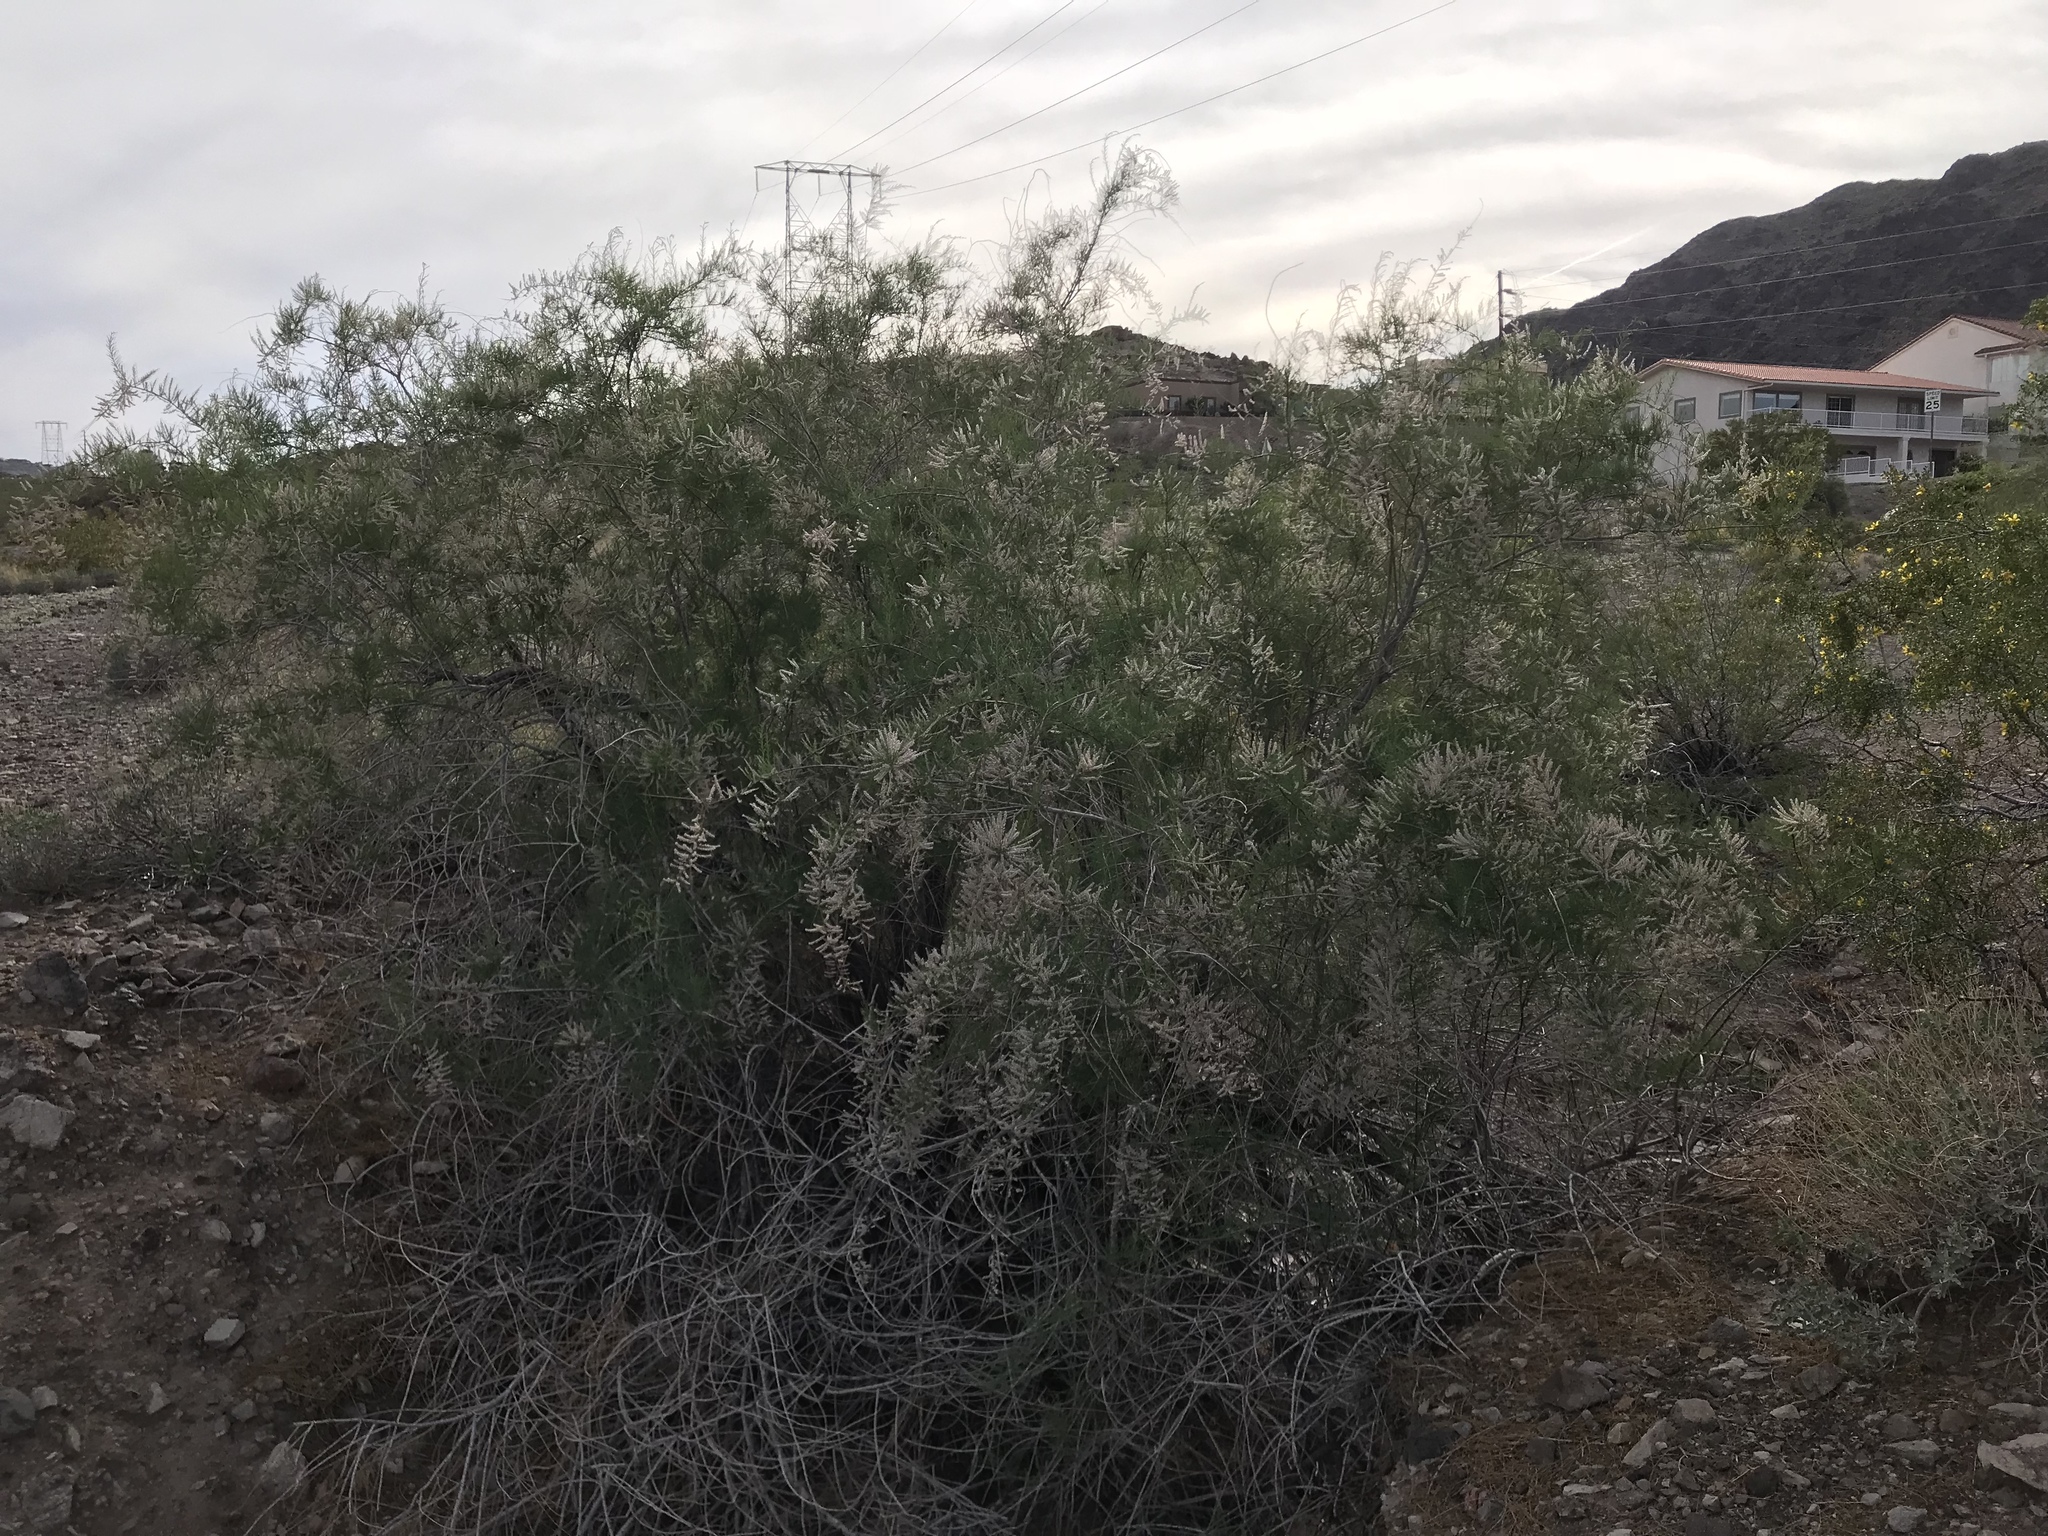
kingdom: Plantae
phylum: Tracheophyta
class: Magnoliopsida
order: Caryophyllales
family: Tamaricaceae
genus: Tamarix
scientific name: Tamarix ramosissima
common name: Pink tamarisk
